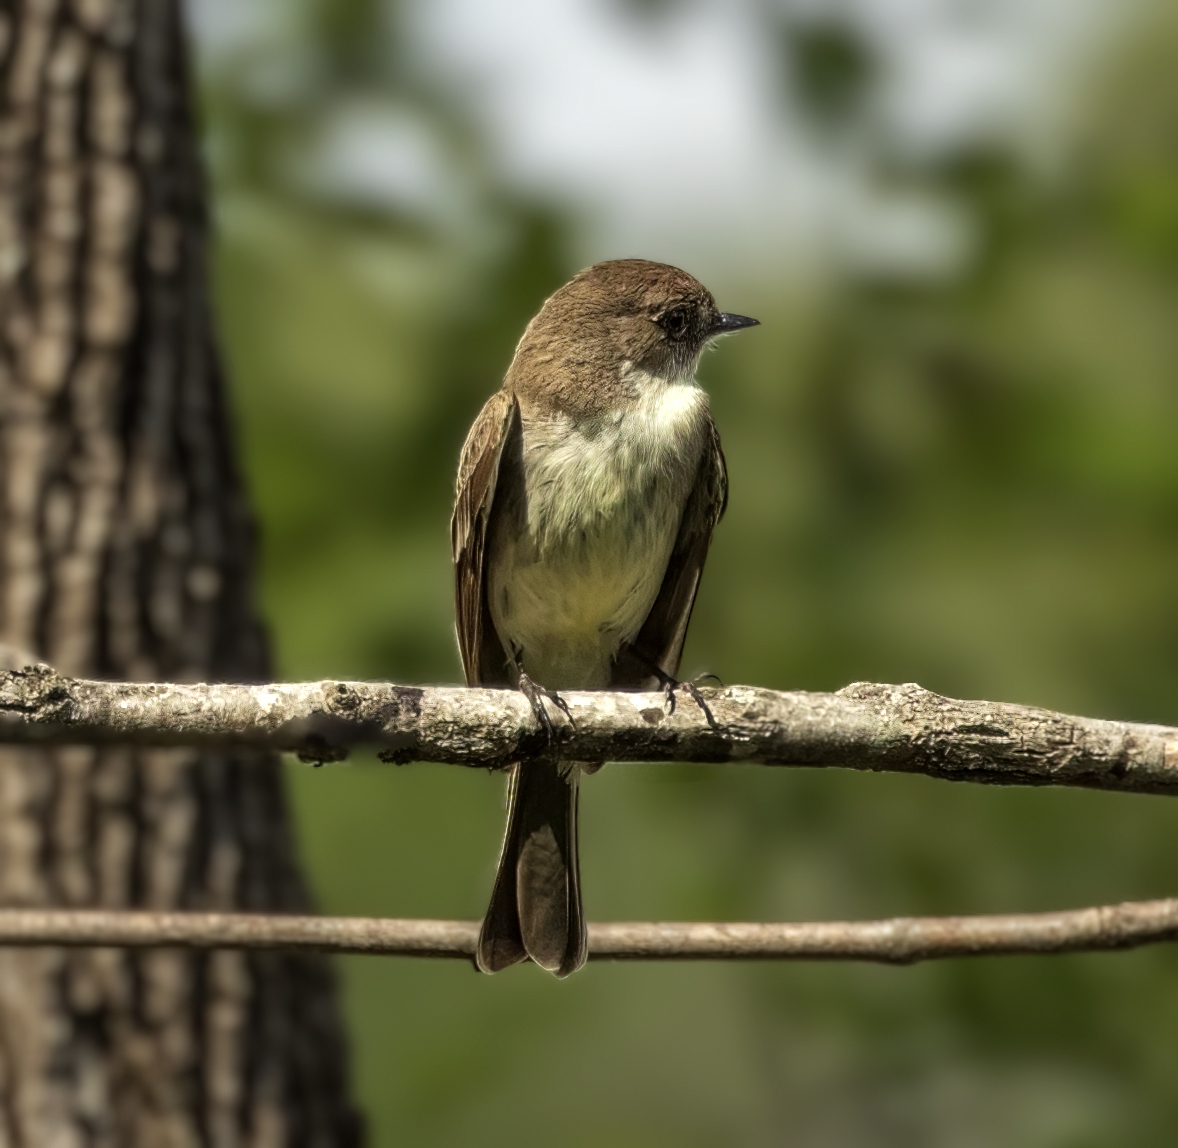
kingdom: Animalia
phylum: Chordata
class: Aves
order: Passeriformes
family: Tyrannidae
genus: Sayornis
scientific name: Sayornis phoebe
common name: Eastern phoebe
